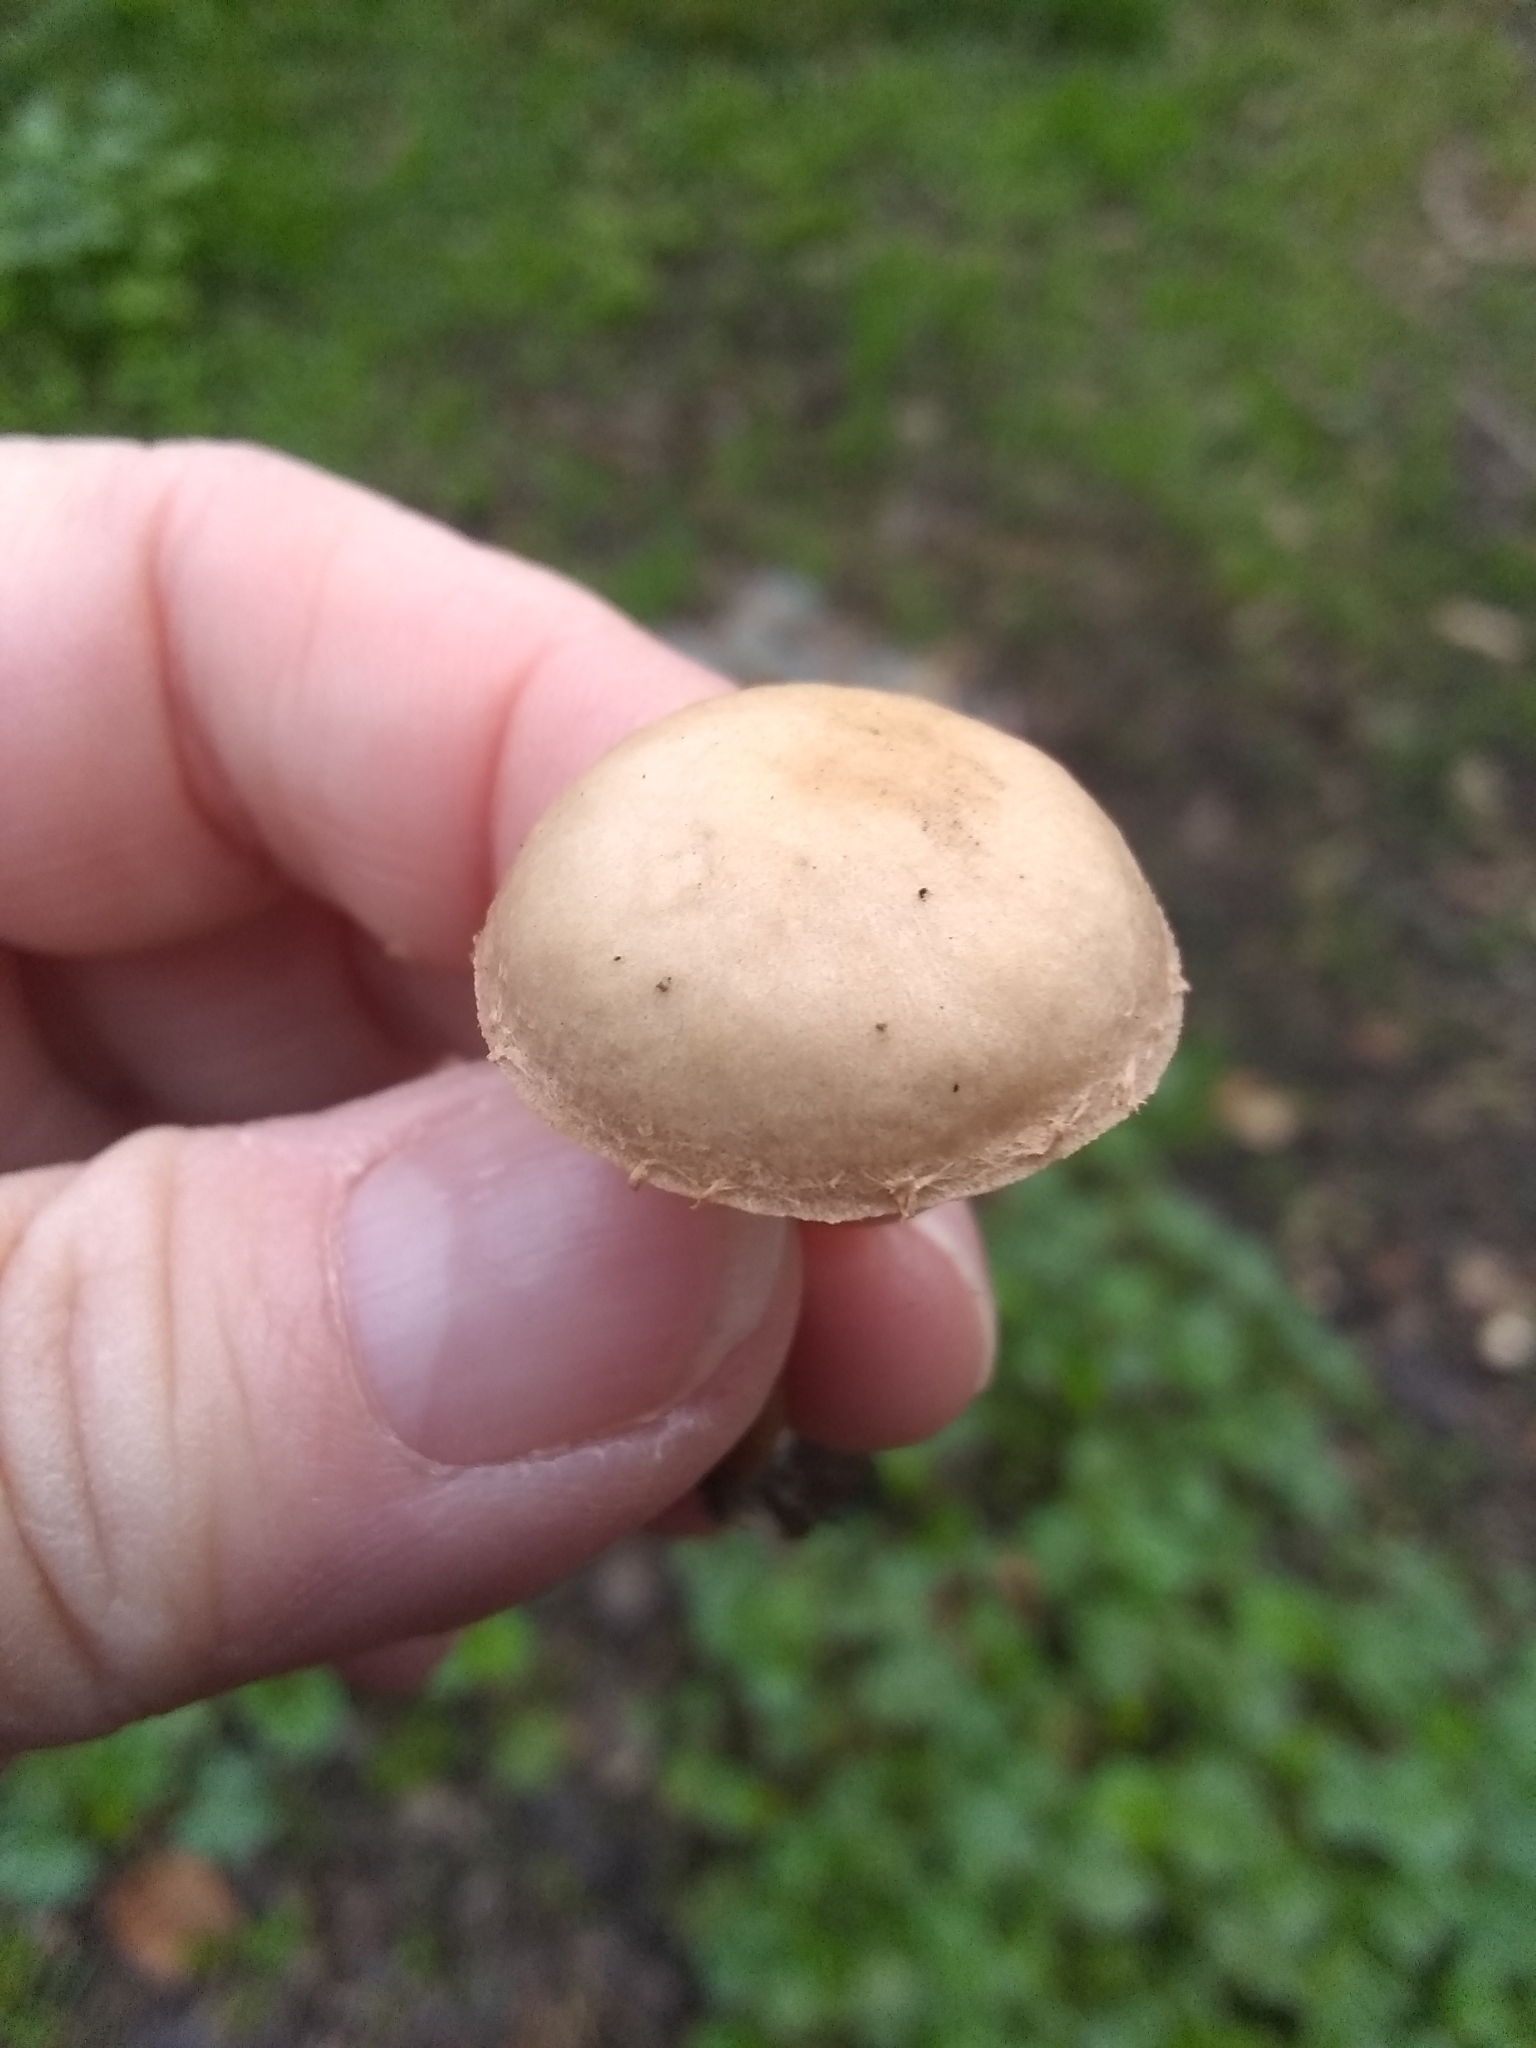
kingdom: Fungi
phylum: Basidiomycota
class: Agaricomycetes
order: Agaricales
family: Strophariaceae
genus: Leratiomyces
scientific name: Leratiomyces percevalii
